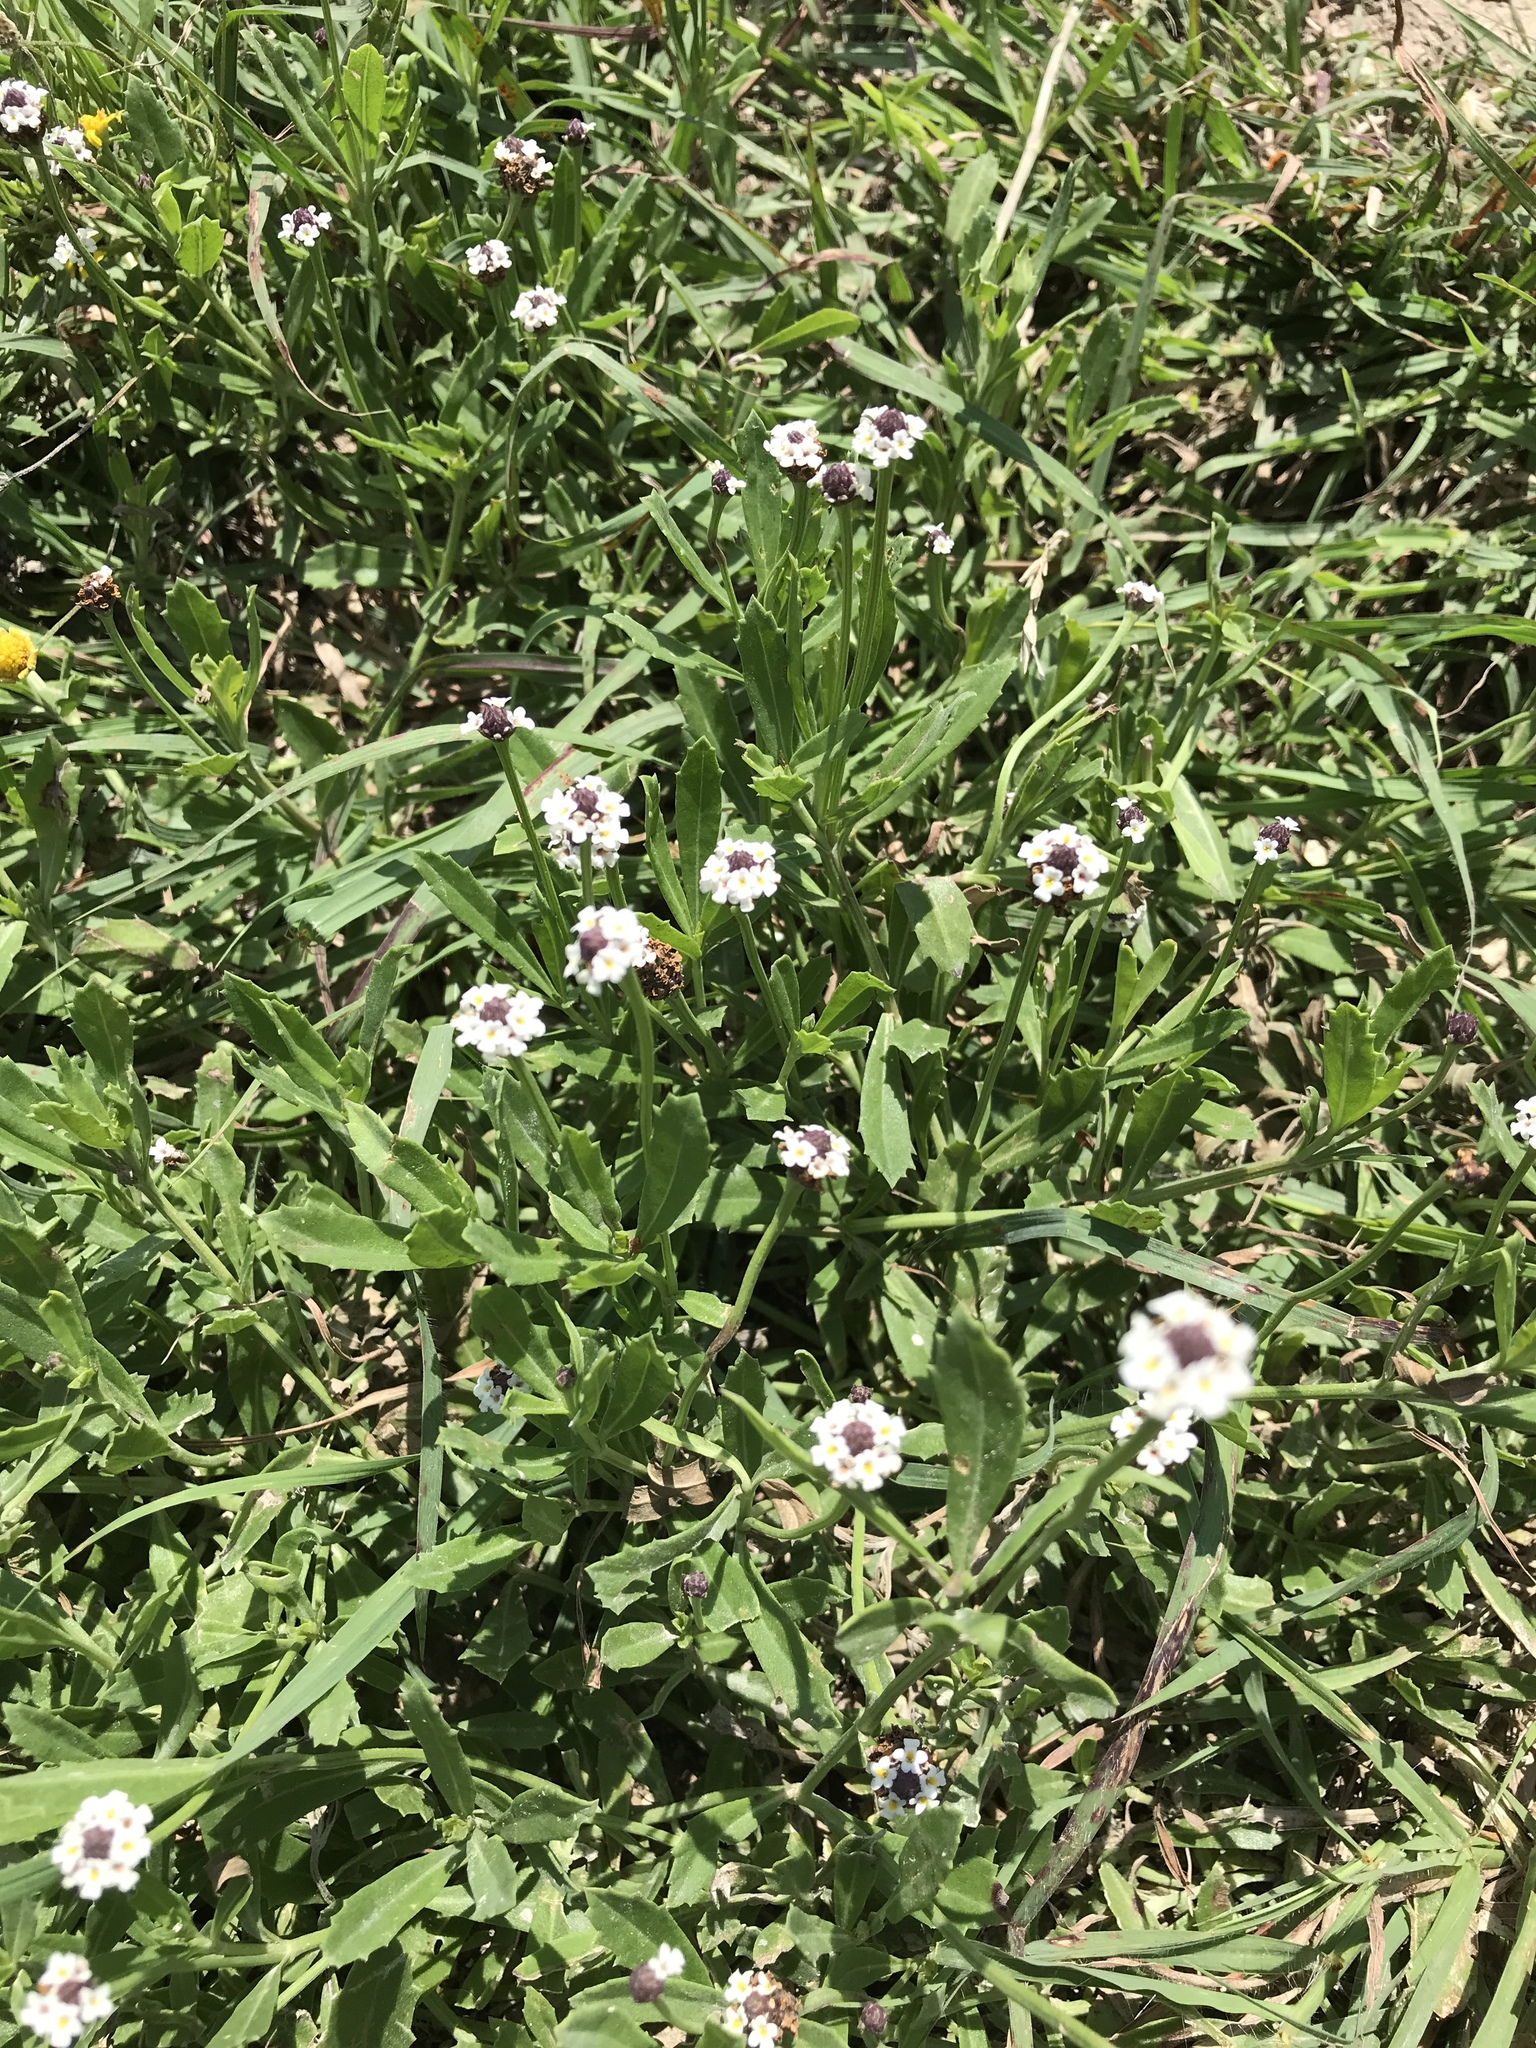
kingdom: Plantae
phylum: Tracheophyta
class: Magnoliopsida
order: Lamiales
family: Verbenaceae
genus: Phyla
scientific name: Phyla nodiflora
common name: Frogfruit
